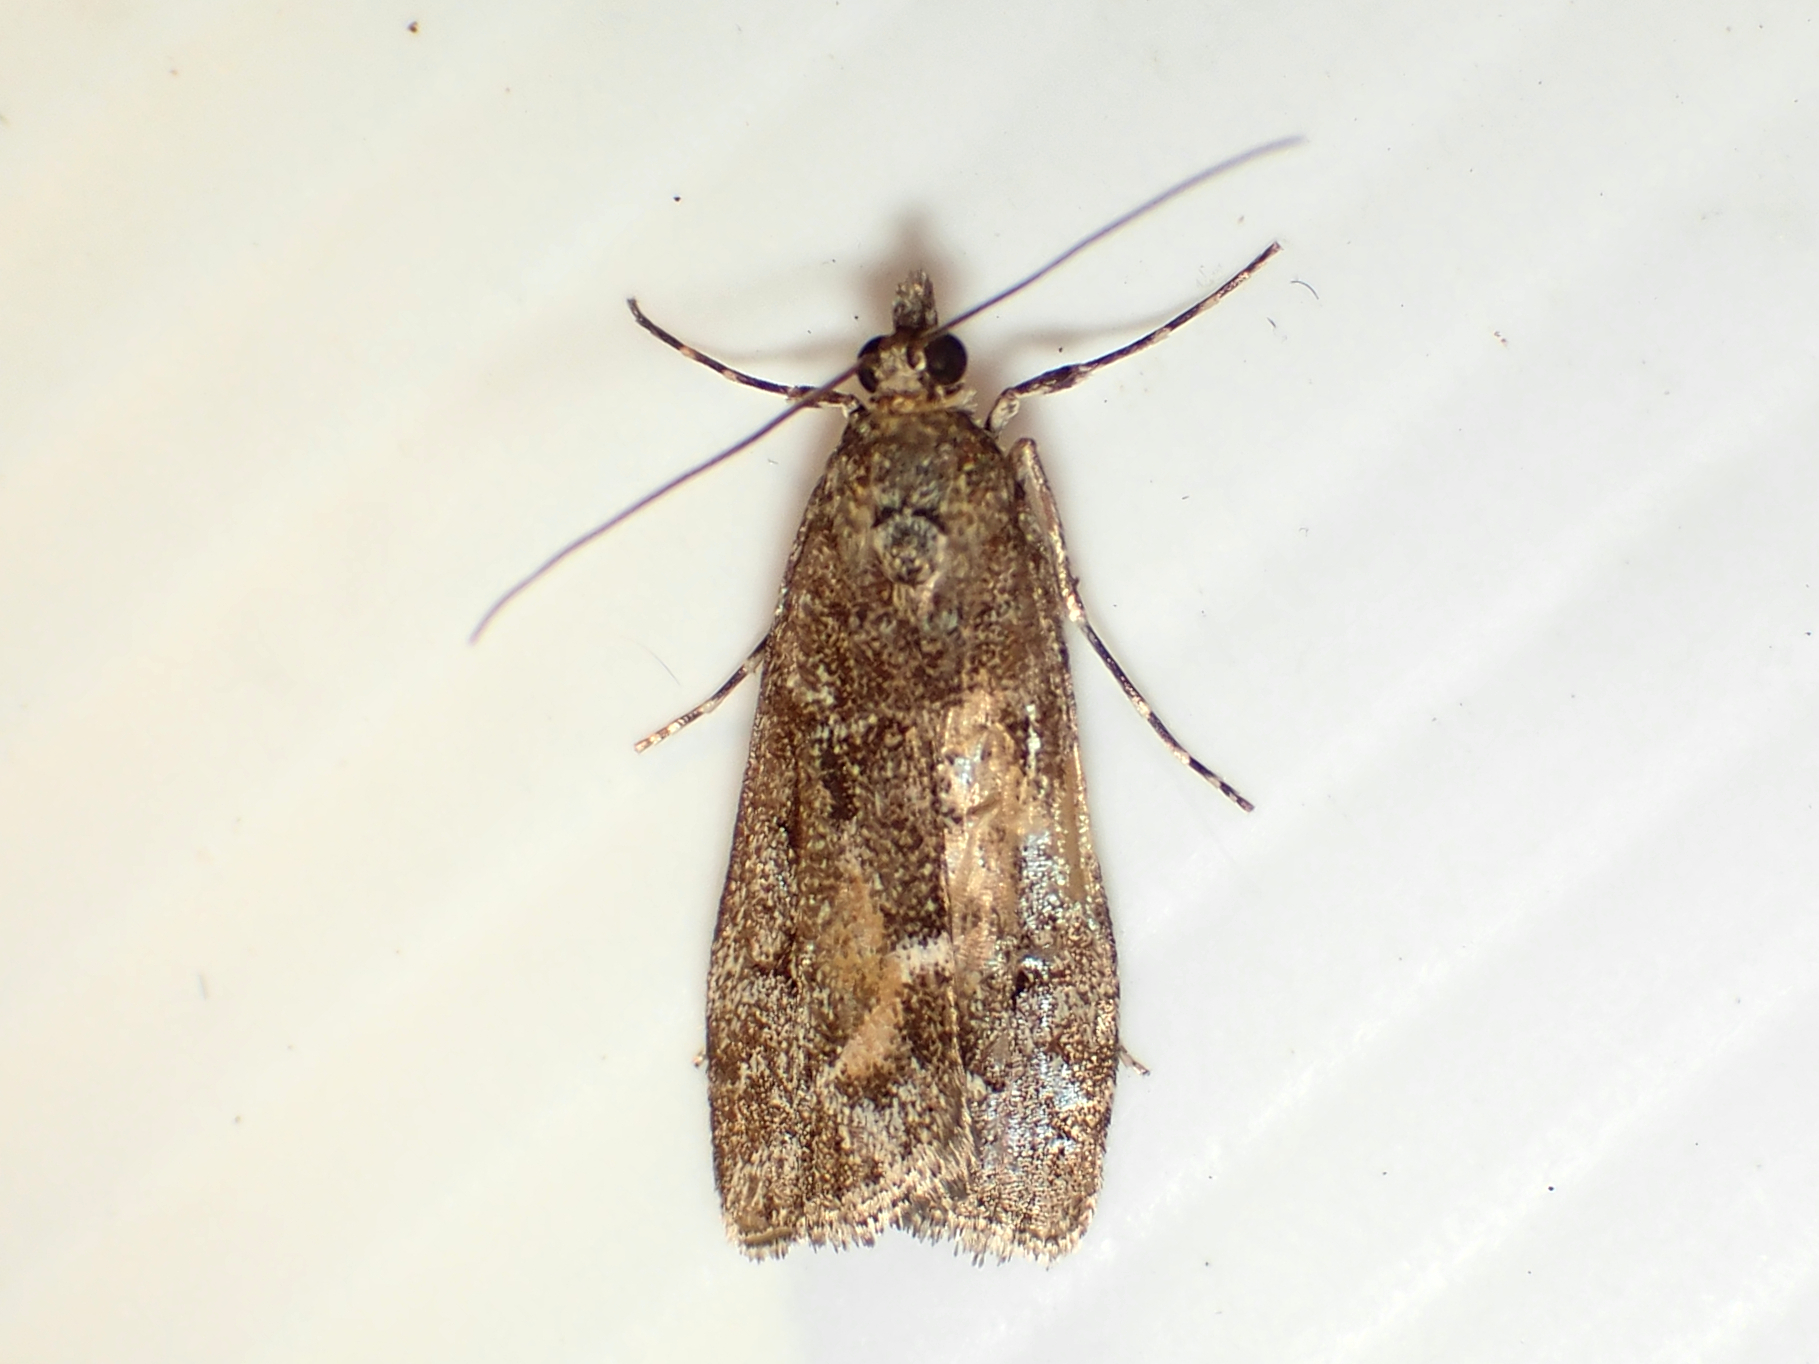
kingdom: Animalia
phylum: Arthropoda
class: Insecta
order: Lepidoptera
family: Crambidae
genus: Eudonia
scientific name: Eudonia submarginalis
